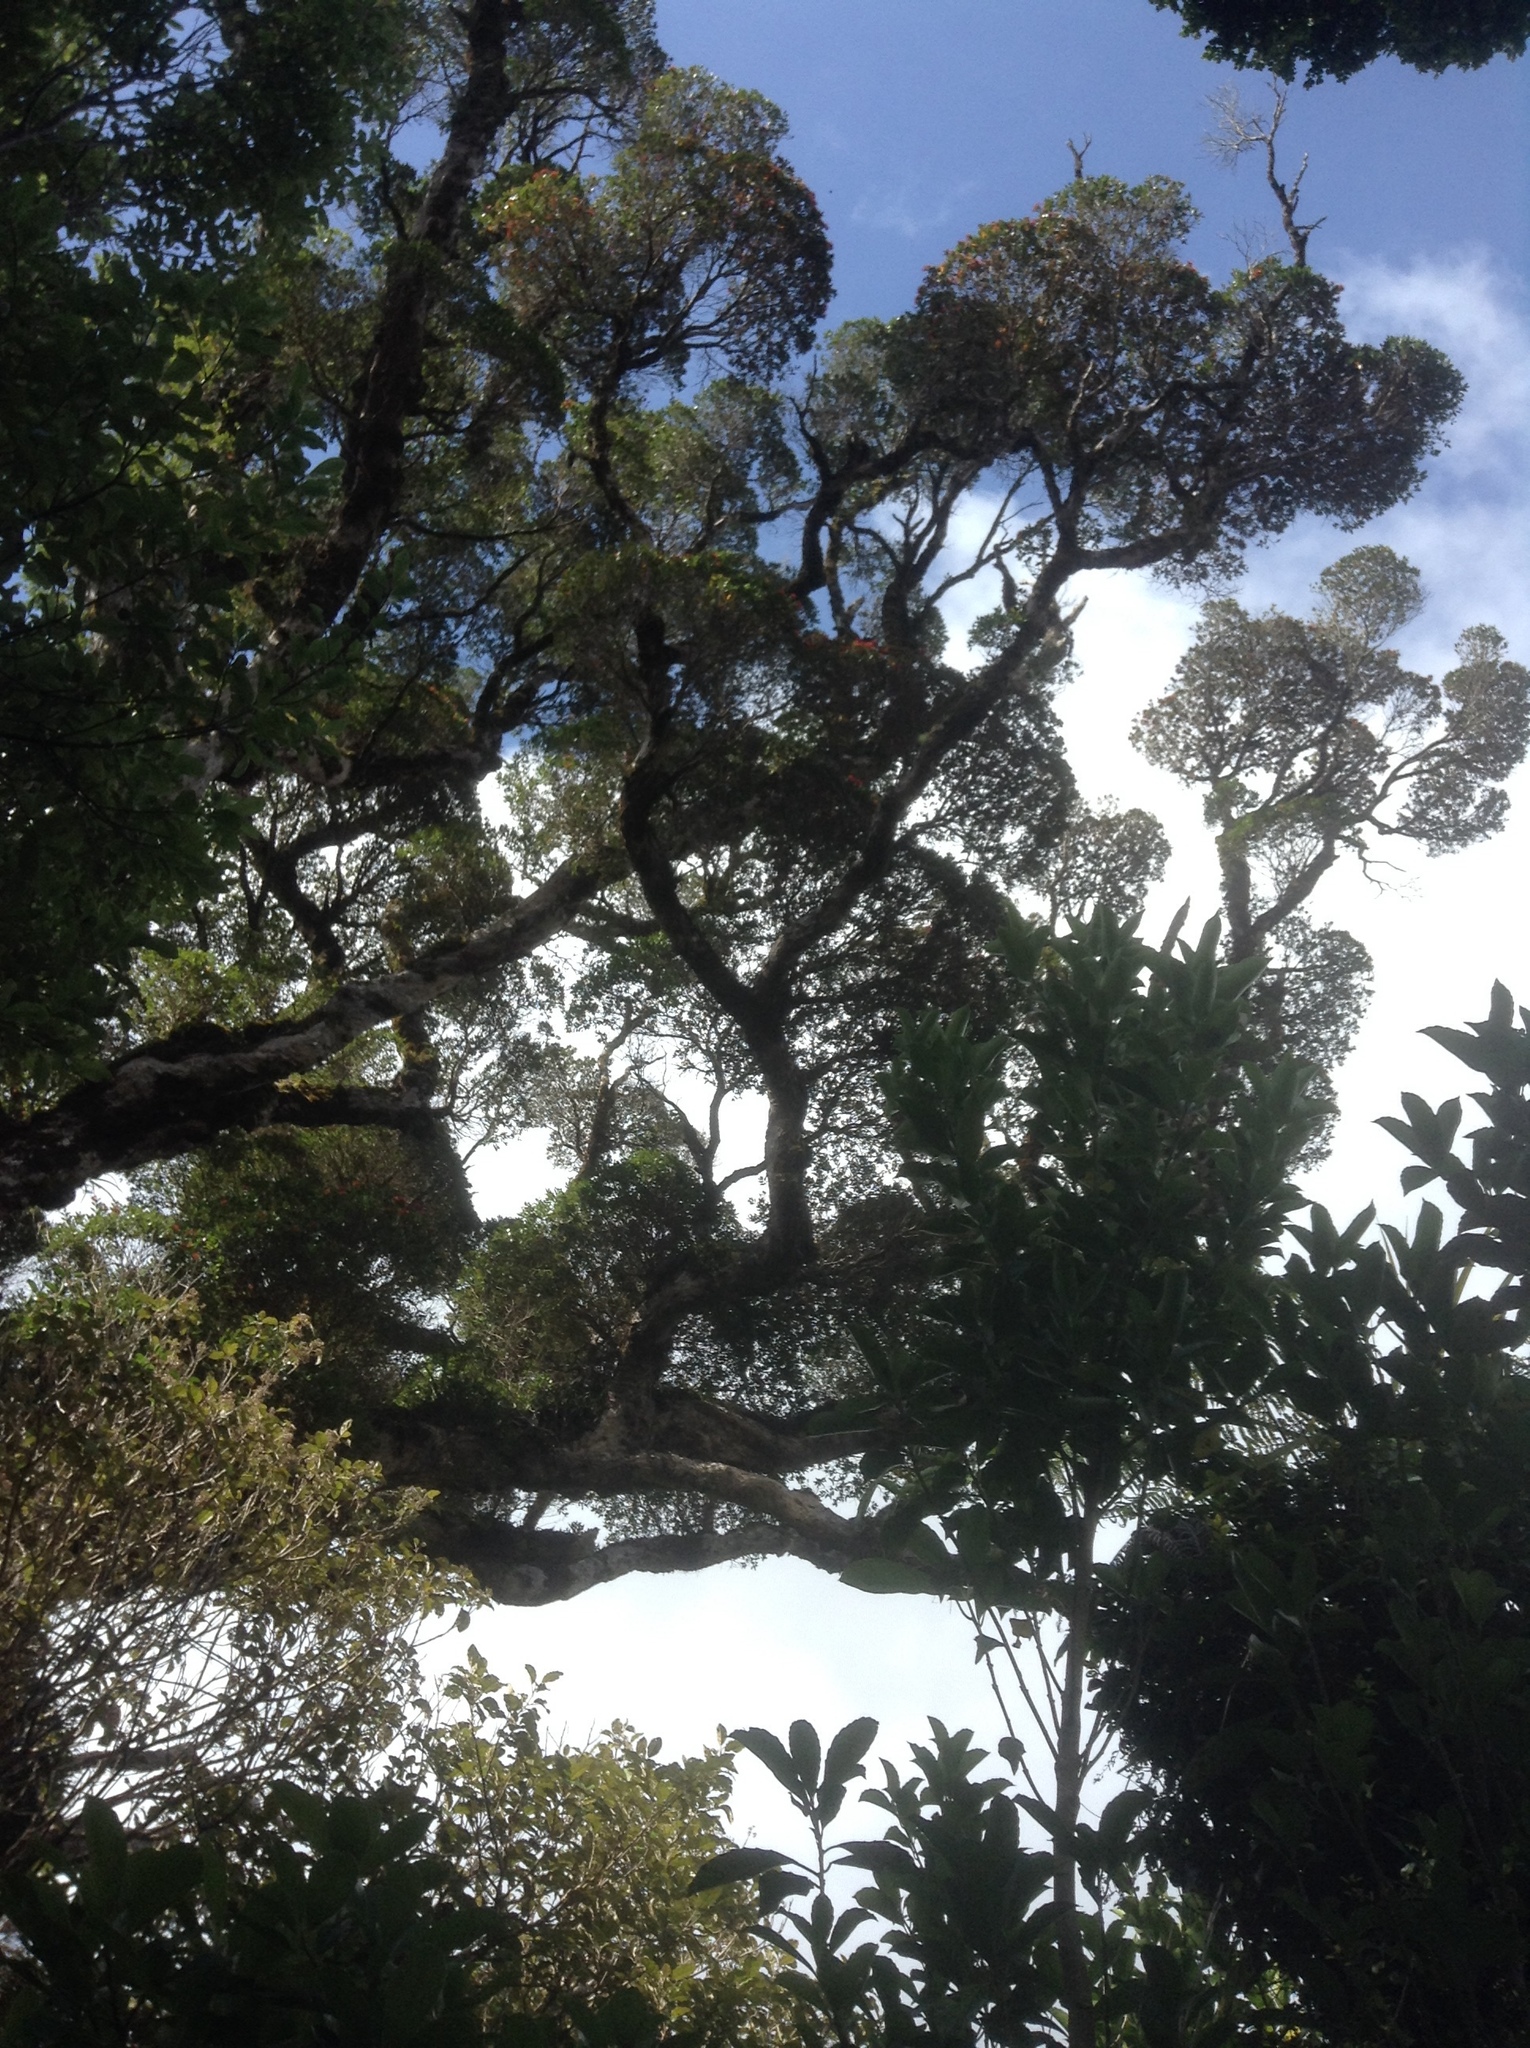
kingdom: Plantae
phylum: Tracheophyta
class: Magnoliopsida
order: Myrtales
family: Myrtaceae
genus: Metrosideros
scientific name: Metrosideros robusta
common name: Northern rata
